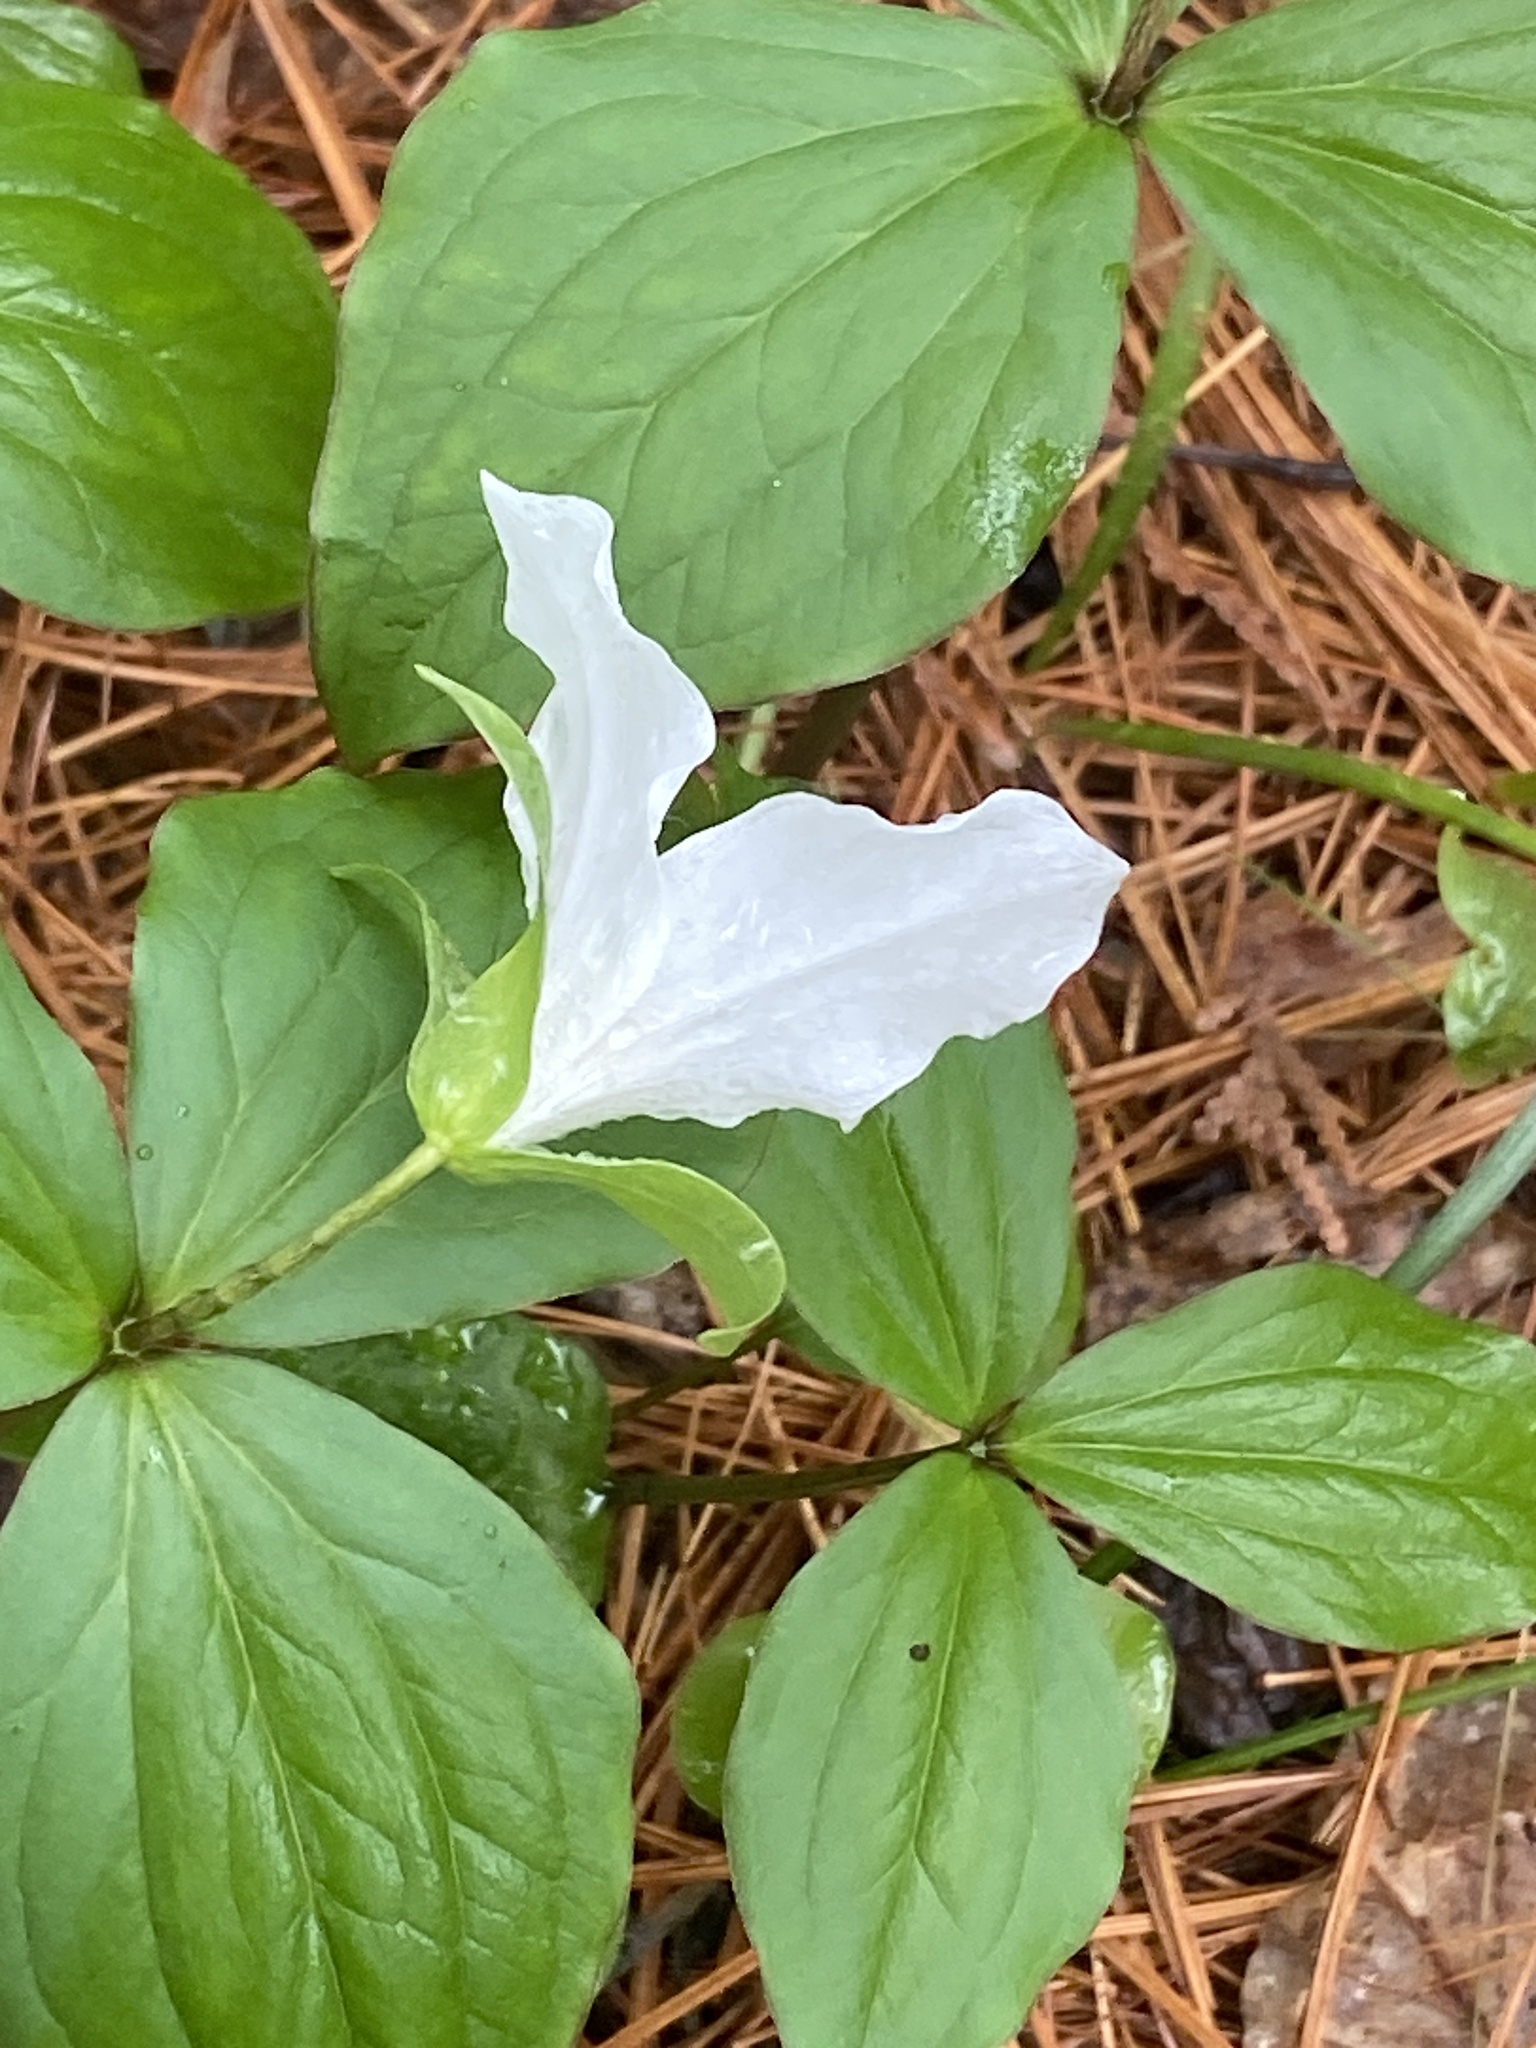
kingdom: Plantae
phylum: Tracheophyta
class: Liliopsida
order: Liliales
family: Melanthiaceae
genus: Trillium
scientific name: Trillium grandiflorum
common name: Great white trillium
